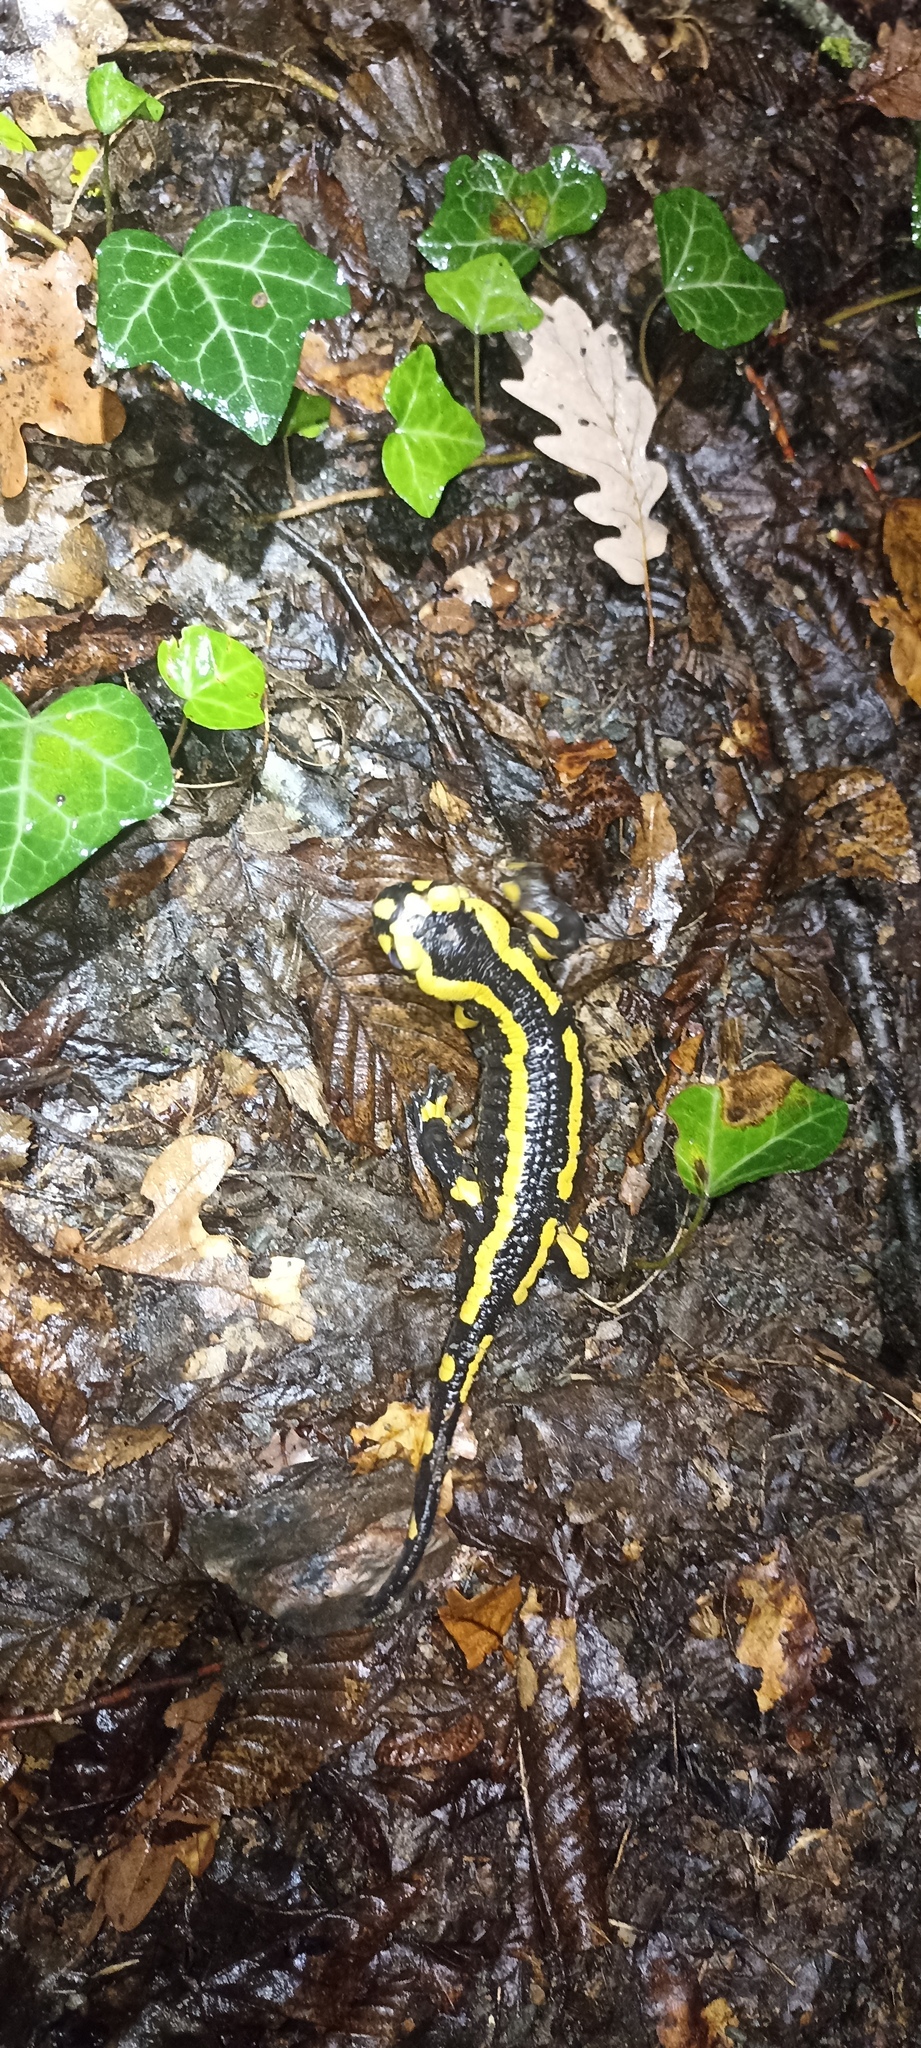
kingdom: Animalia
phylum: Chordata
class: Amphibia
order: Caudata
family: Salamandridae
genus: Salamandra
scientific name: Salamandra salamandra
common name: Fire salamander
